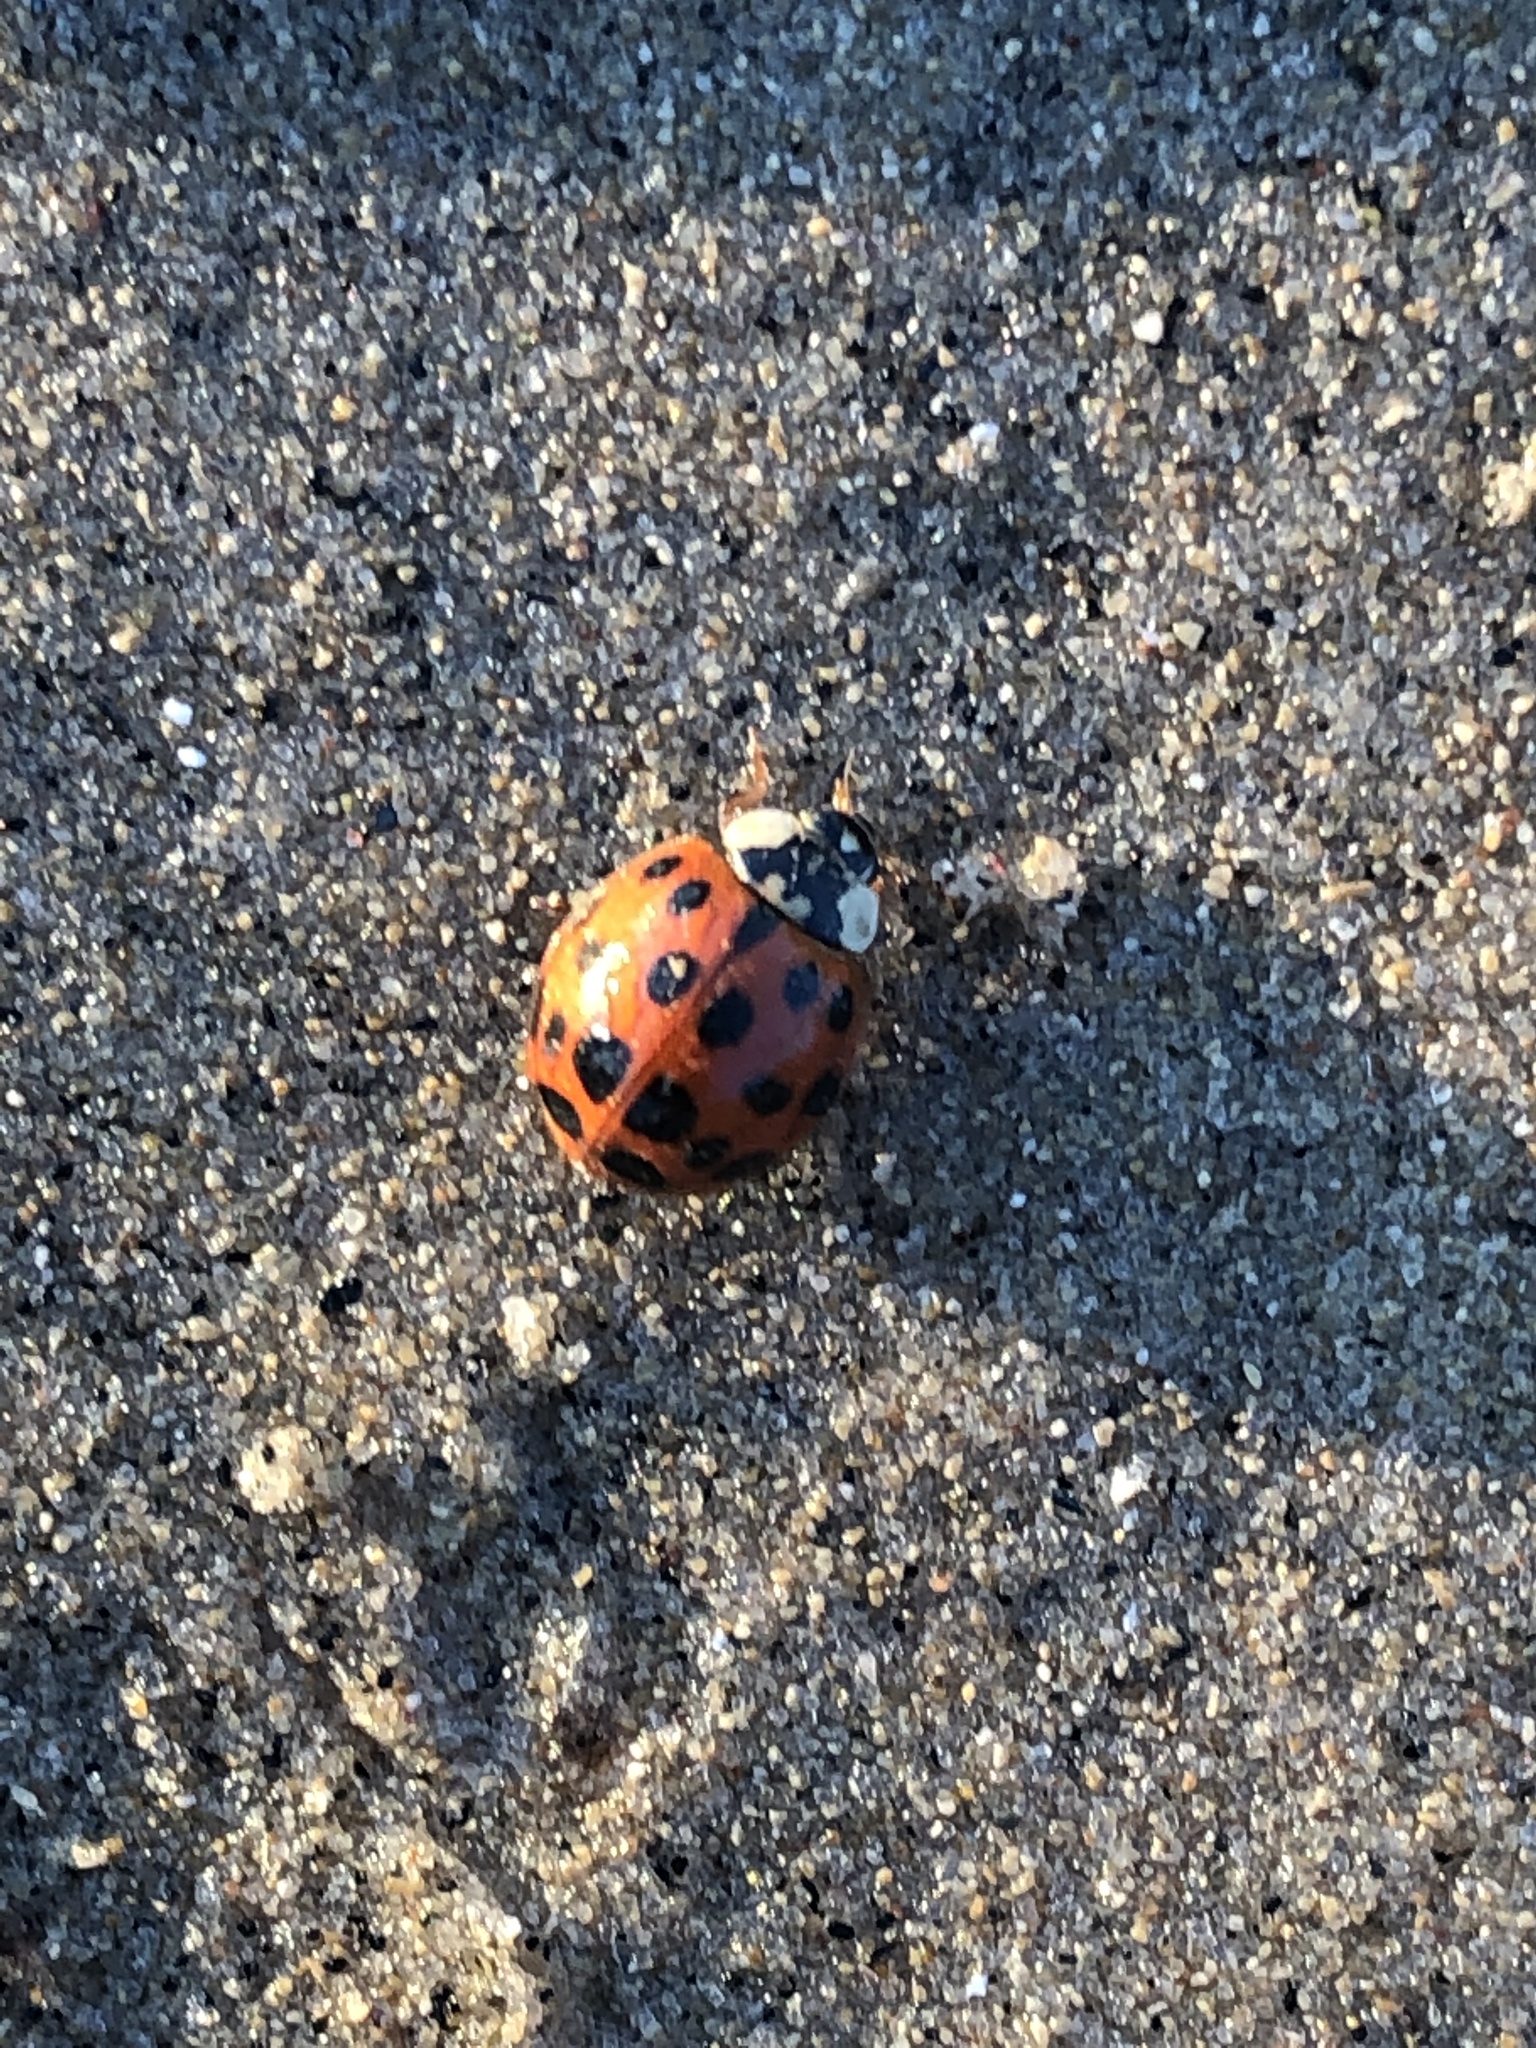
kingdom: Animalia
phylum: Arthropoda
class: Insecta
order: Coleoptera
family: Coccinellidae
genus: Harmonia
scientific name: Harmonia axyridis
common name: Harlequin ladybird
